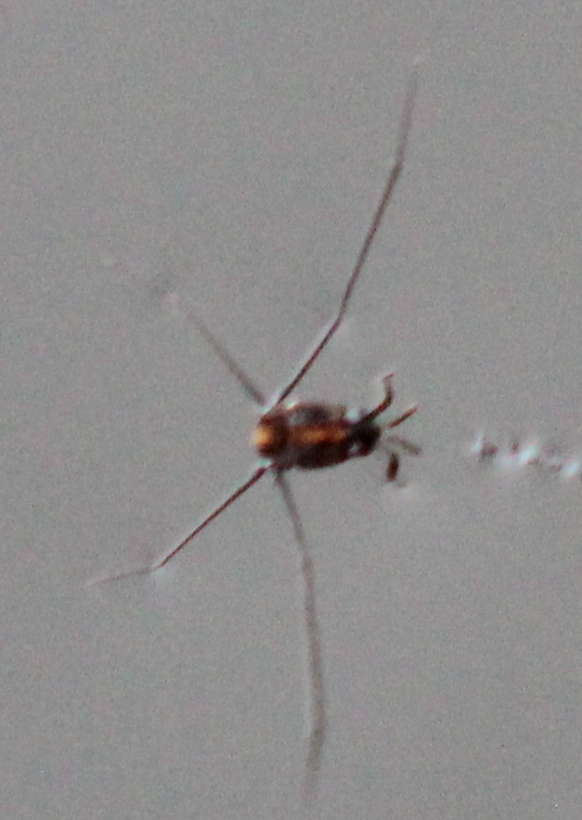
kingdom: Animalia
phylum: Arthropoda
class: Insecta
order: Hemiptera
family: Gerridae
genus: Metrobates
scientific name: Metrobates hesperius
